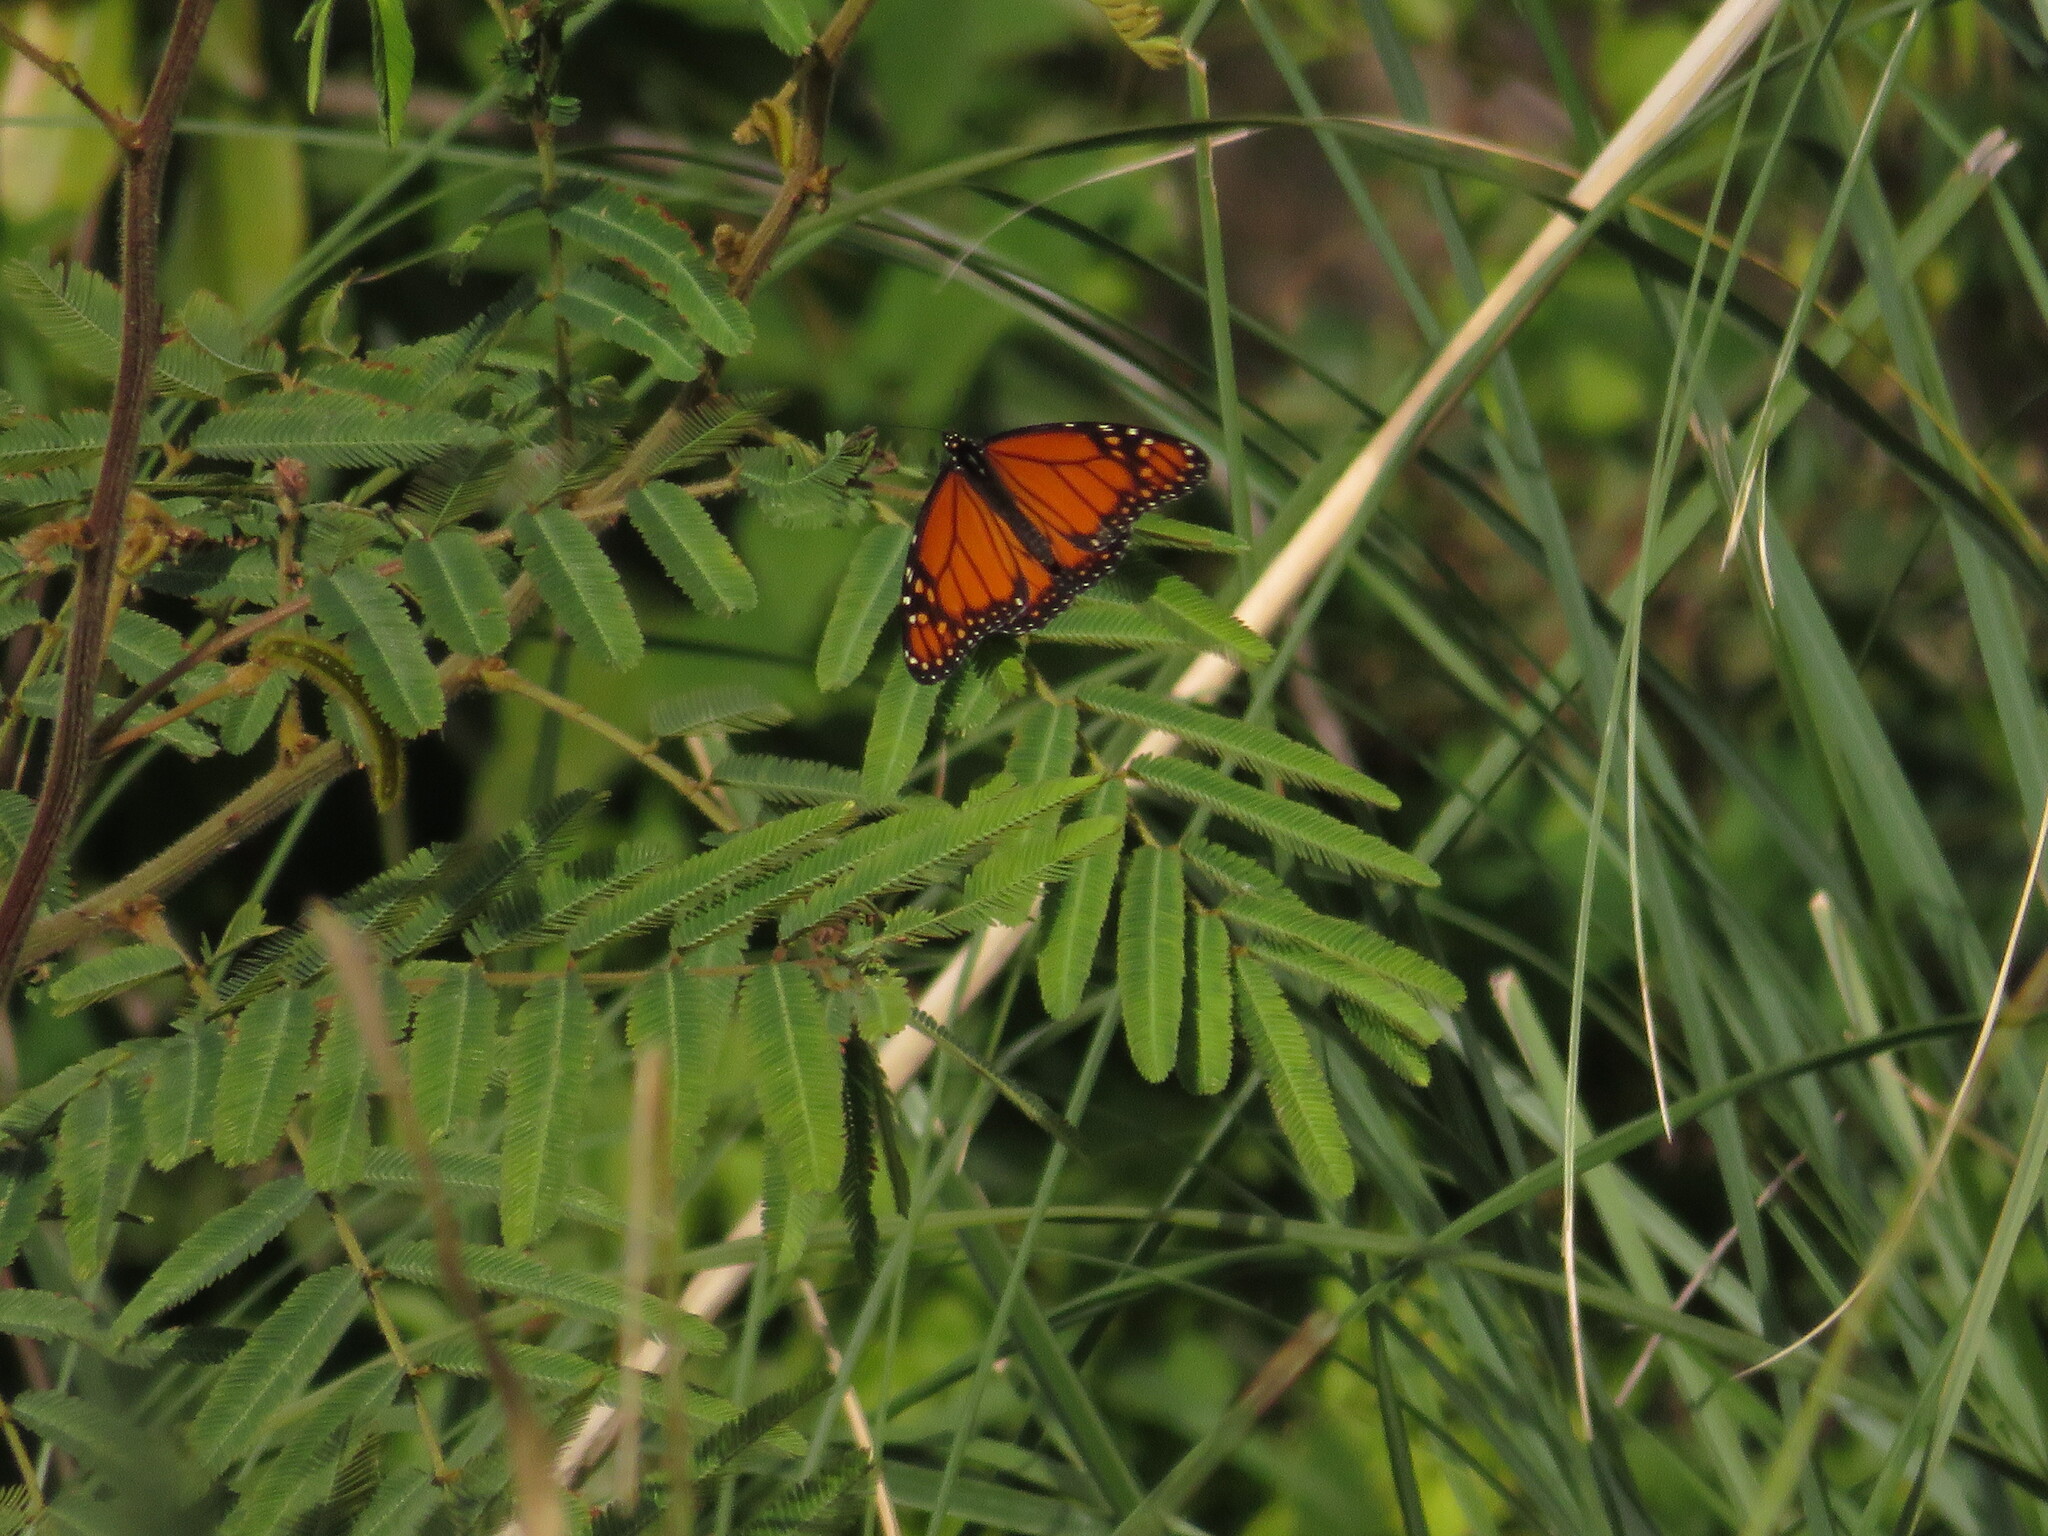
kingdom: Animalia
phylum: Arthropoda
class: Insecta
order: Lepidoptera
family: Nymphalidae
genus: Danaus
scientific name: Danaus erippus
